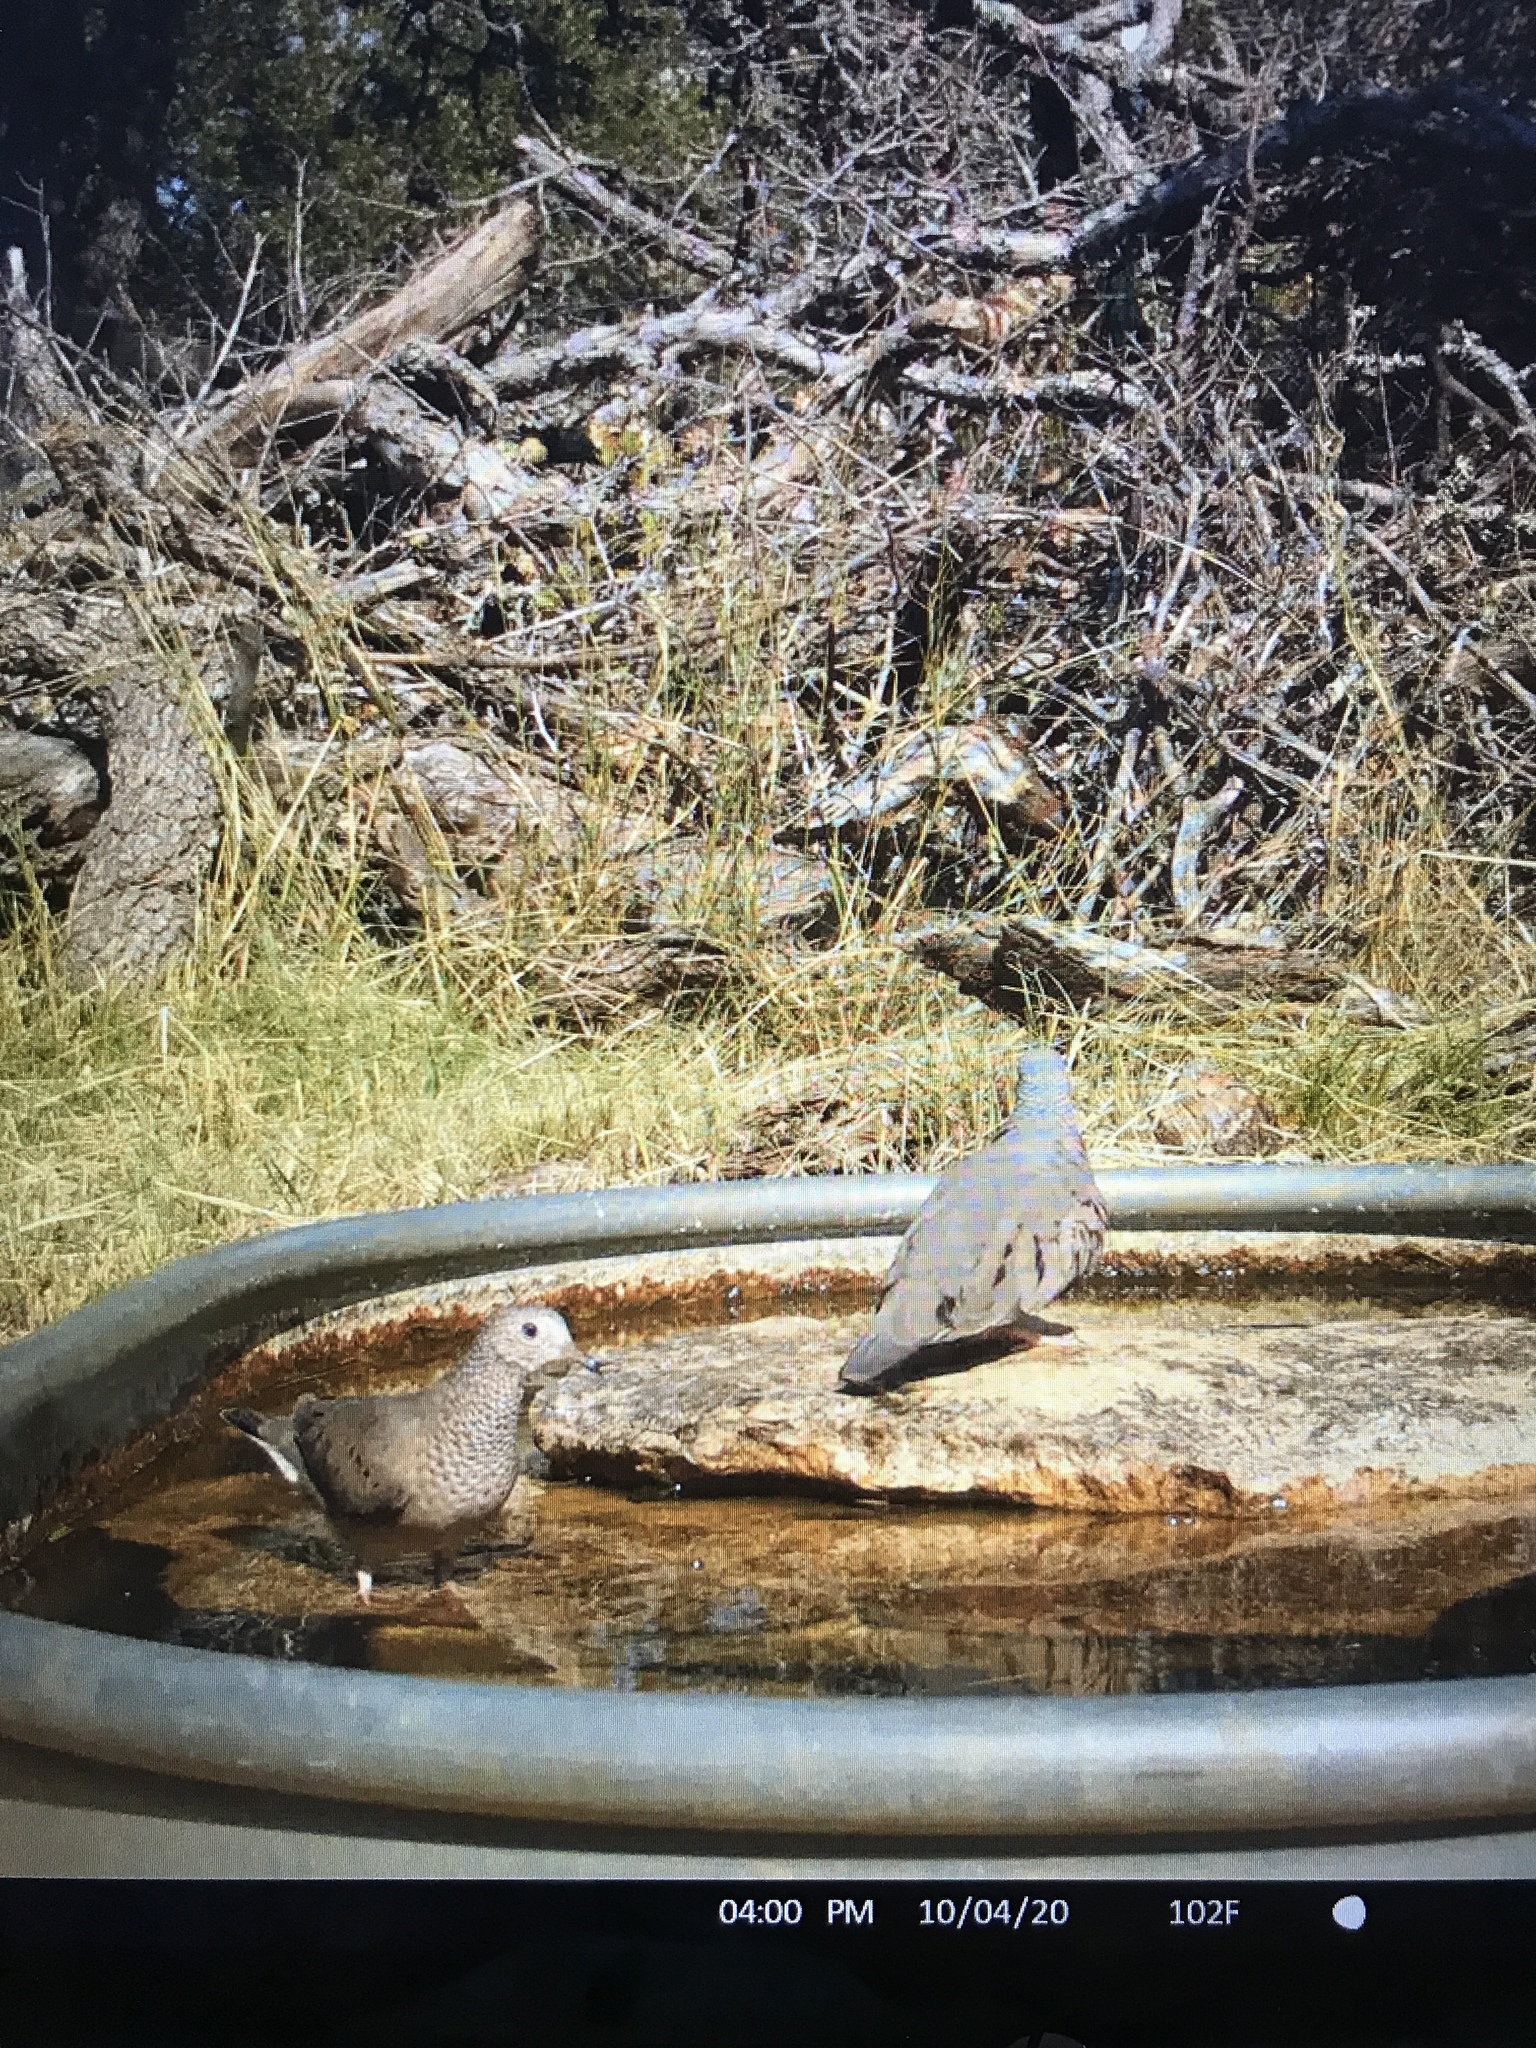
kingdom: Animalia
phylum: Chordata
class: Aves
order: Columbiformes
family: Columbidae
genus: Columbina
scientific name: Columbina passerina
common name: Common ground-dove
